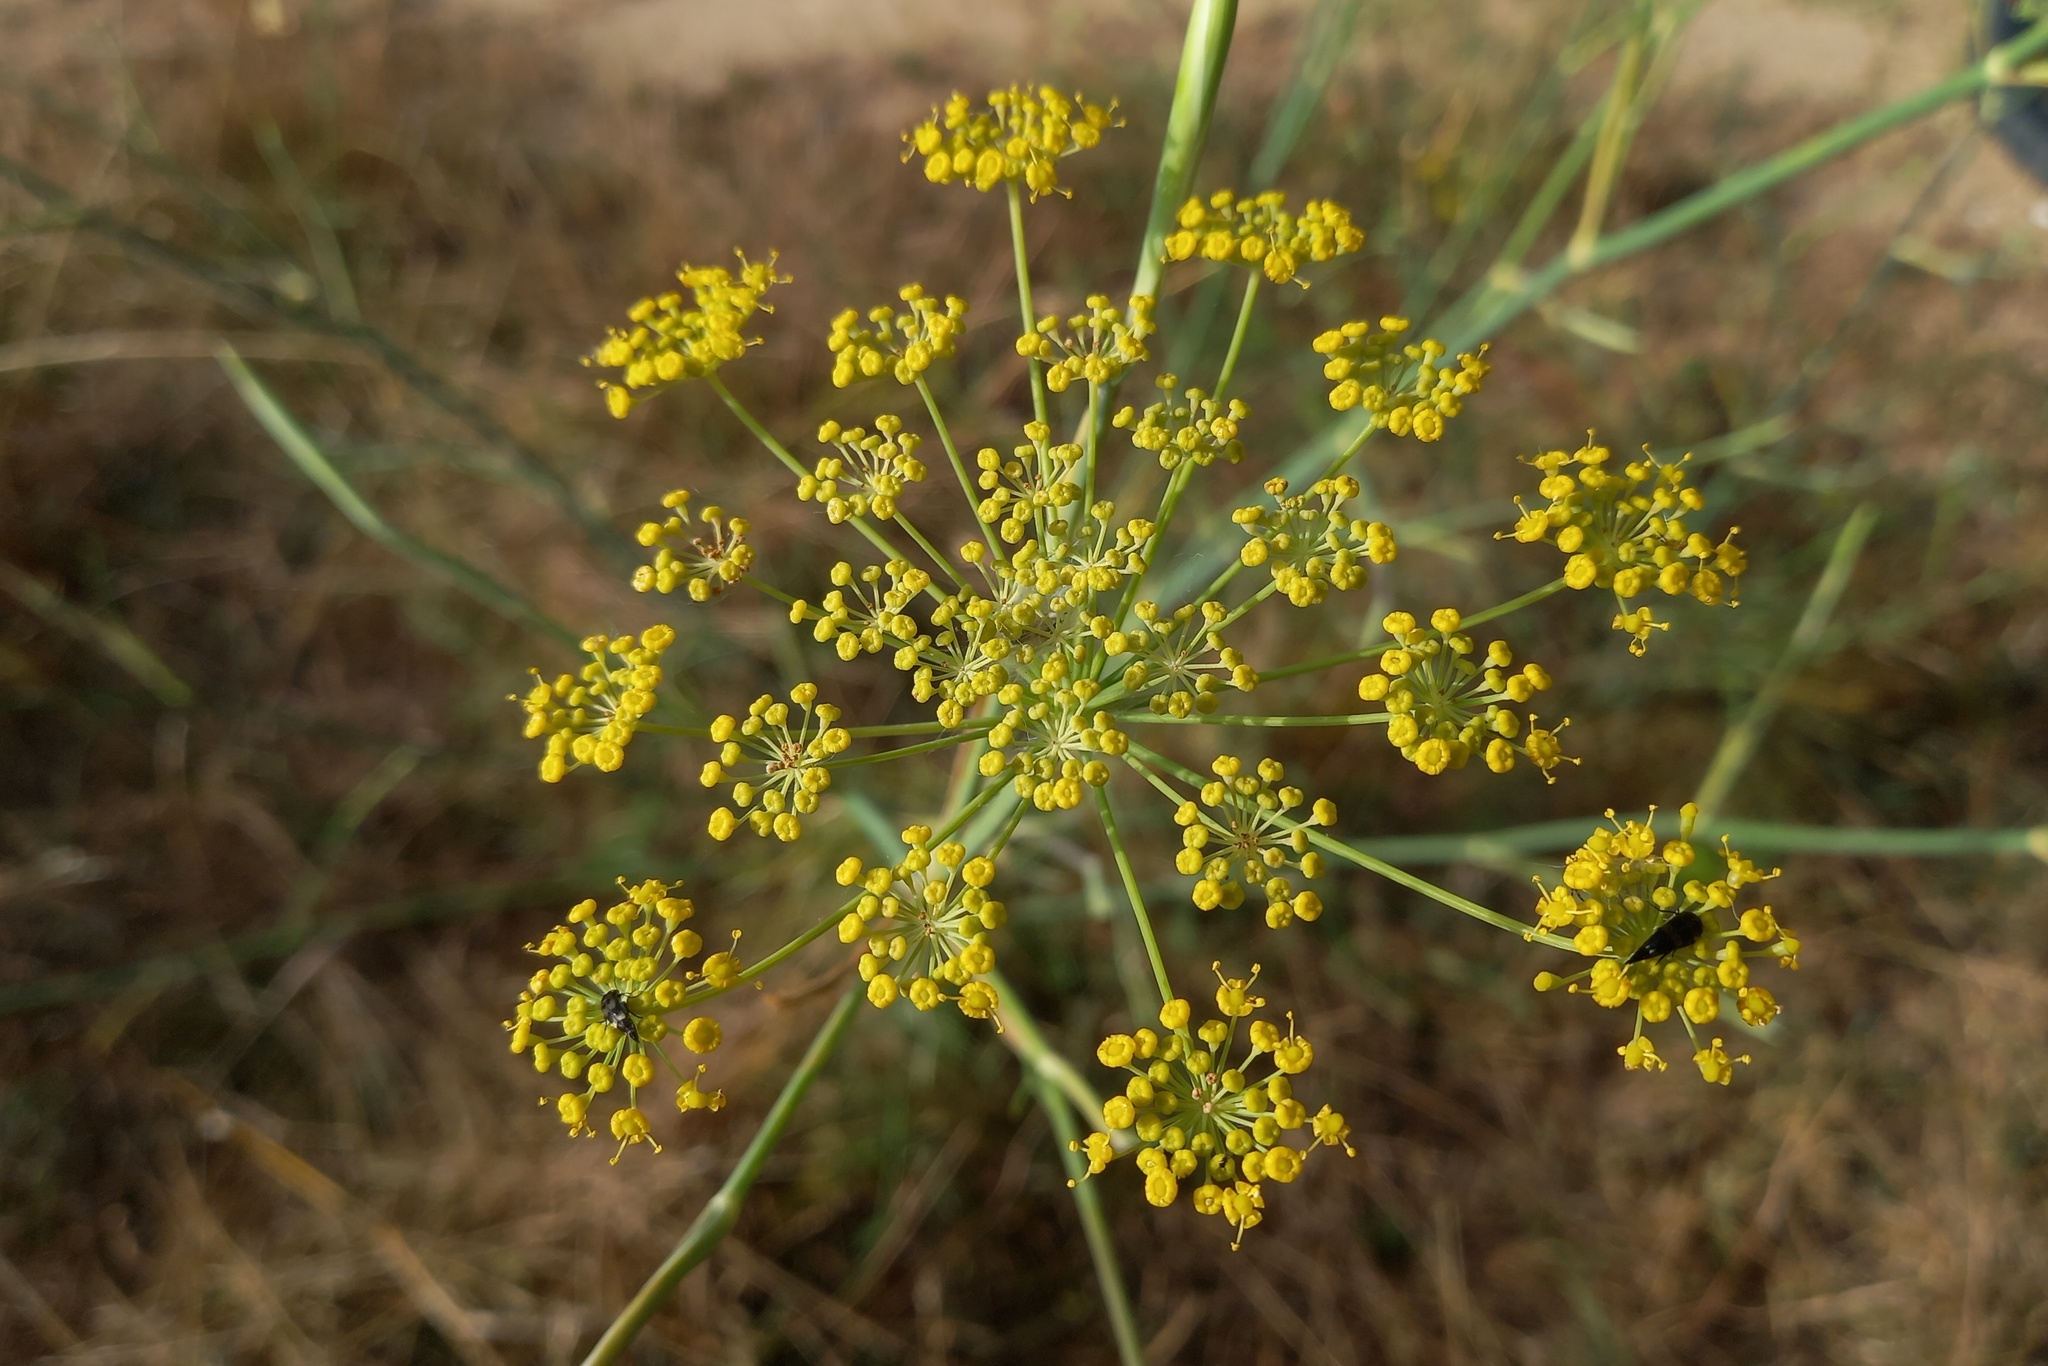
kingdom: Plantae
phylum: Tracheophyta
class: Magnoliopsida
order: Apiales
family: Apiaceae
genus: Foeniculum
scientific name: Foeniculum vulgare
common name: Fennel
